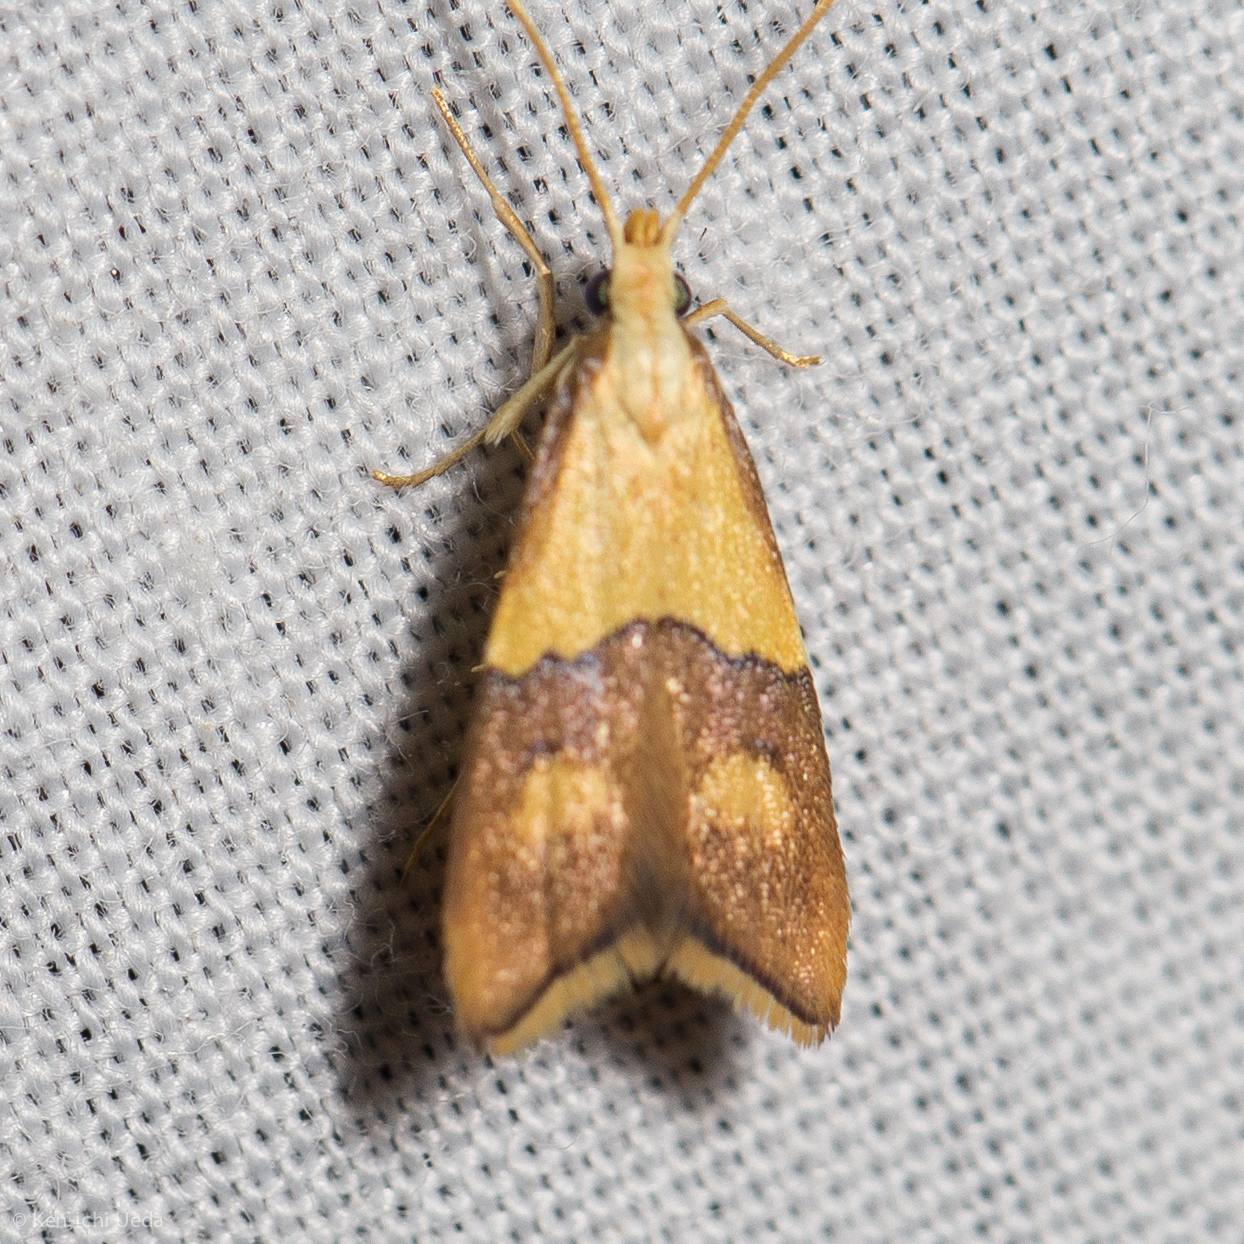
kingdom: Animalia
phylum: Arthropoda
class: Insecta
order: Lepidoptera
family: Lecithoceridae
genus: Crocanthes
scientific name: Crocanthes glycina
